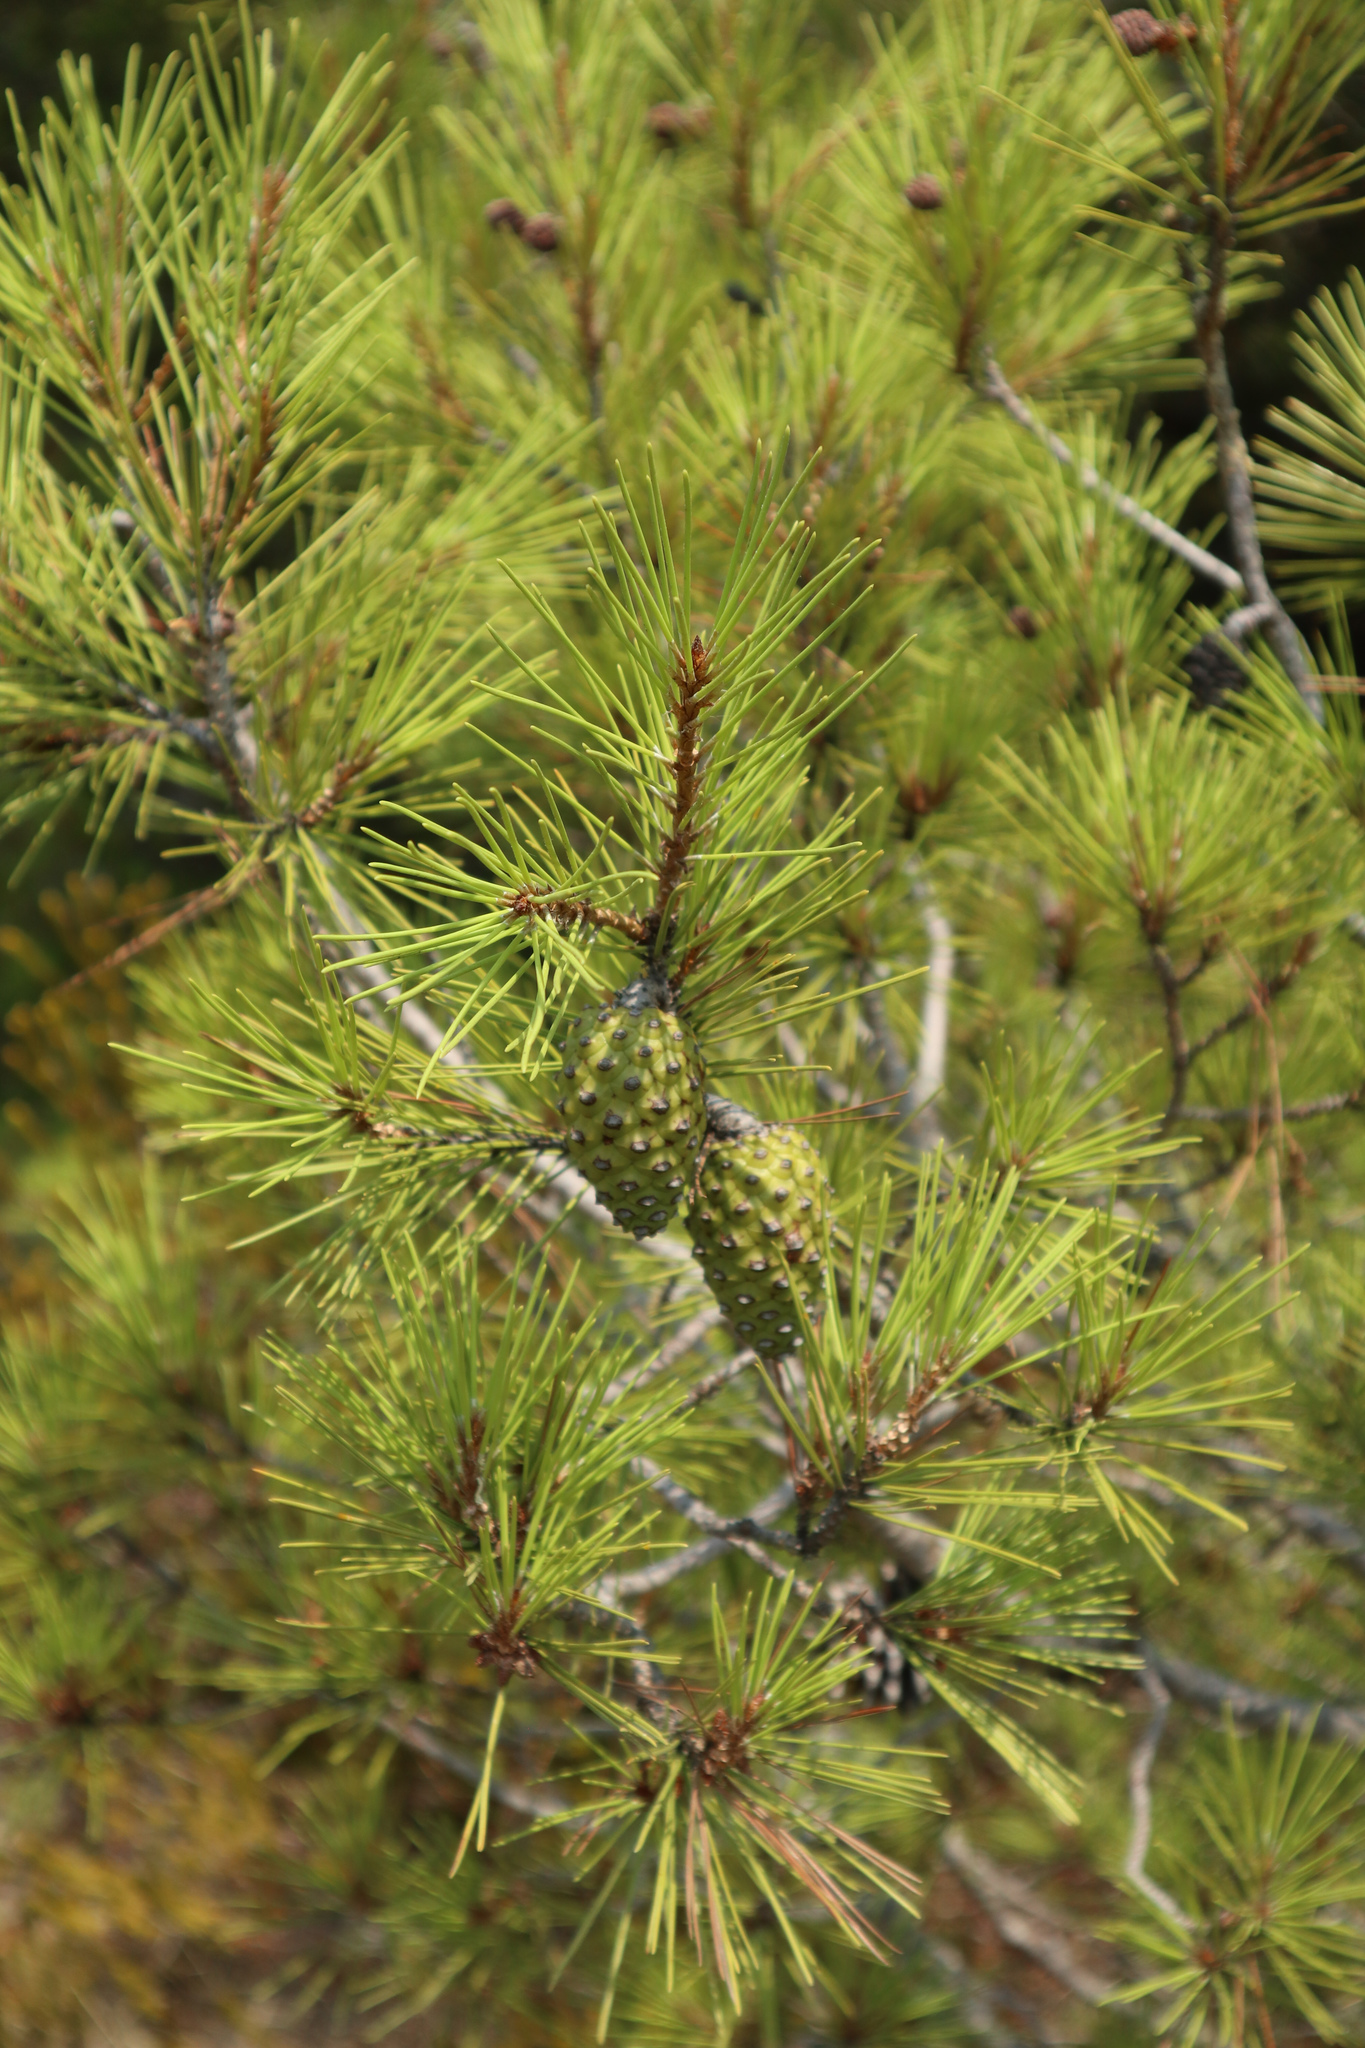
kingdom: Plantae
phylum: Tracheophyta
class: Pinopsida
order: Pinales
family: Pinaceae
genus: Pinus
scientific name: Pinus halepensis
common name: Aleppo pine
